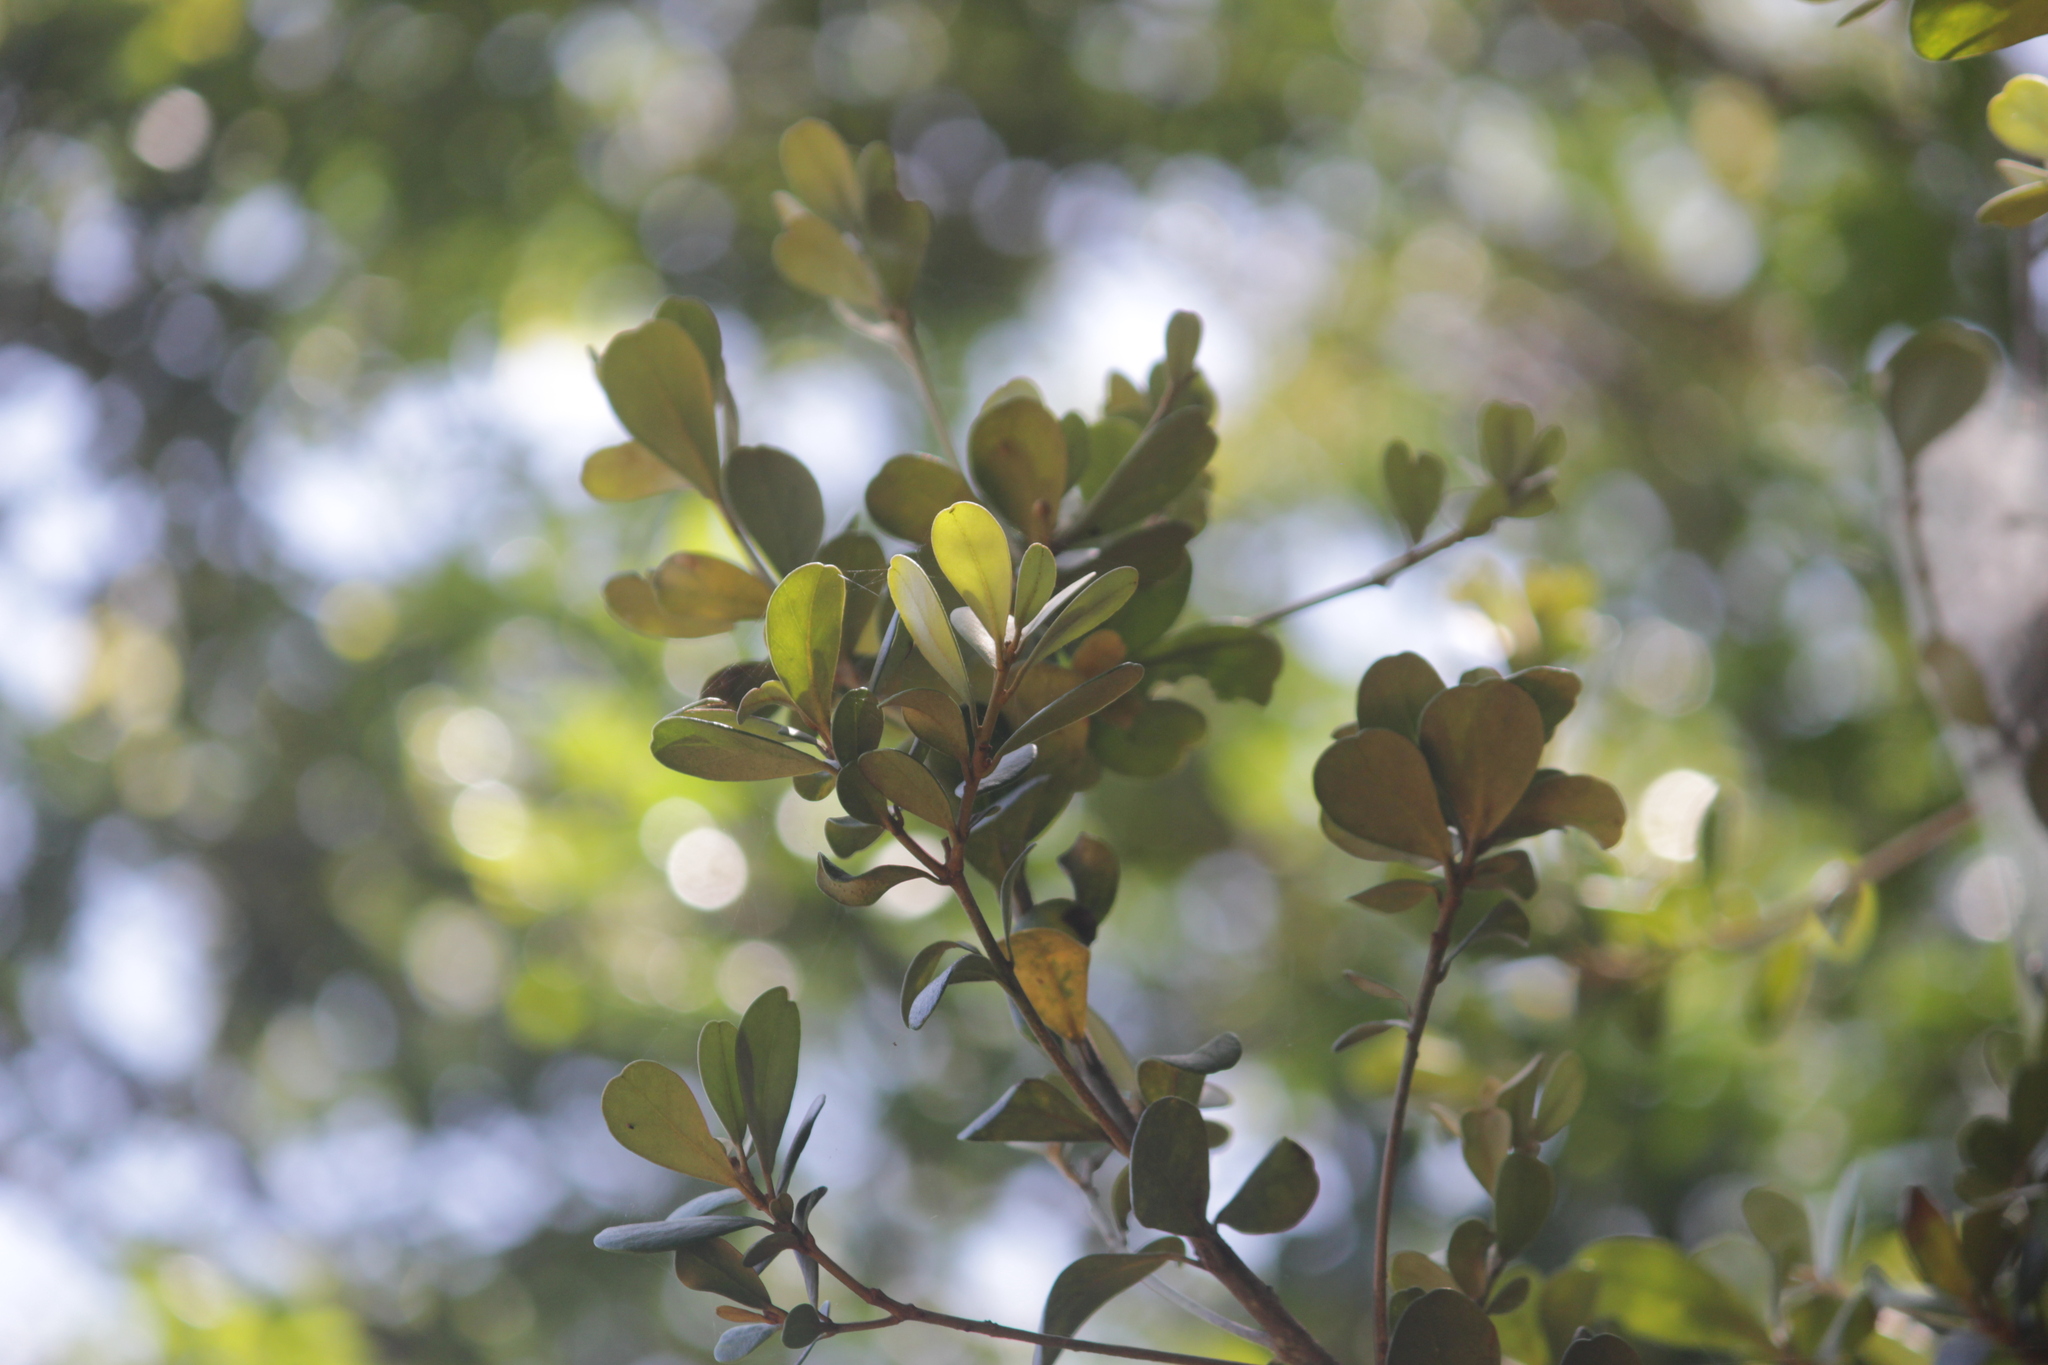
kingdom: Plantae
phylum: Tracheophyta
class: Magnoliopsida
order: Ericales
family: Sapotaceae
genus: Mimusops
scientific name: Mimusops caffra
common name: Coastal red milkwood
